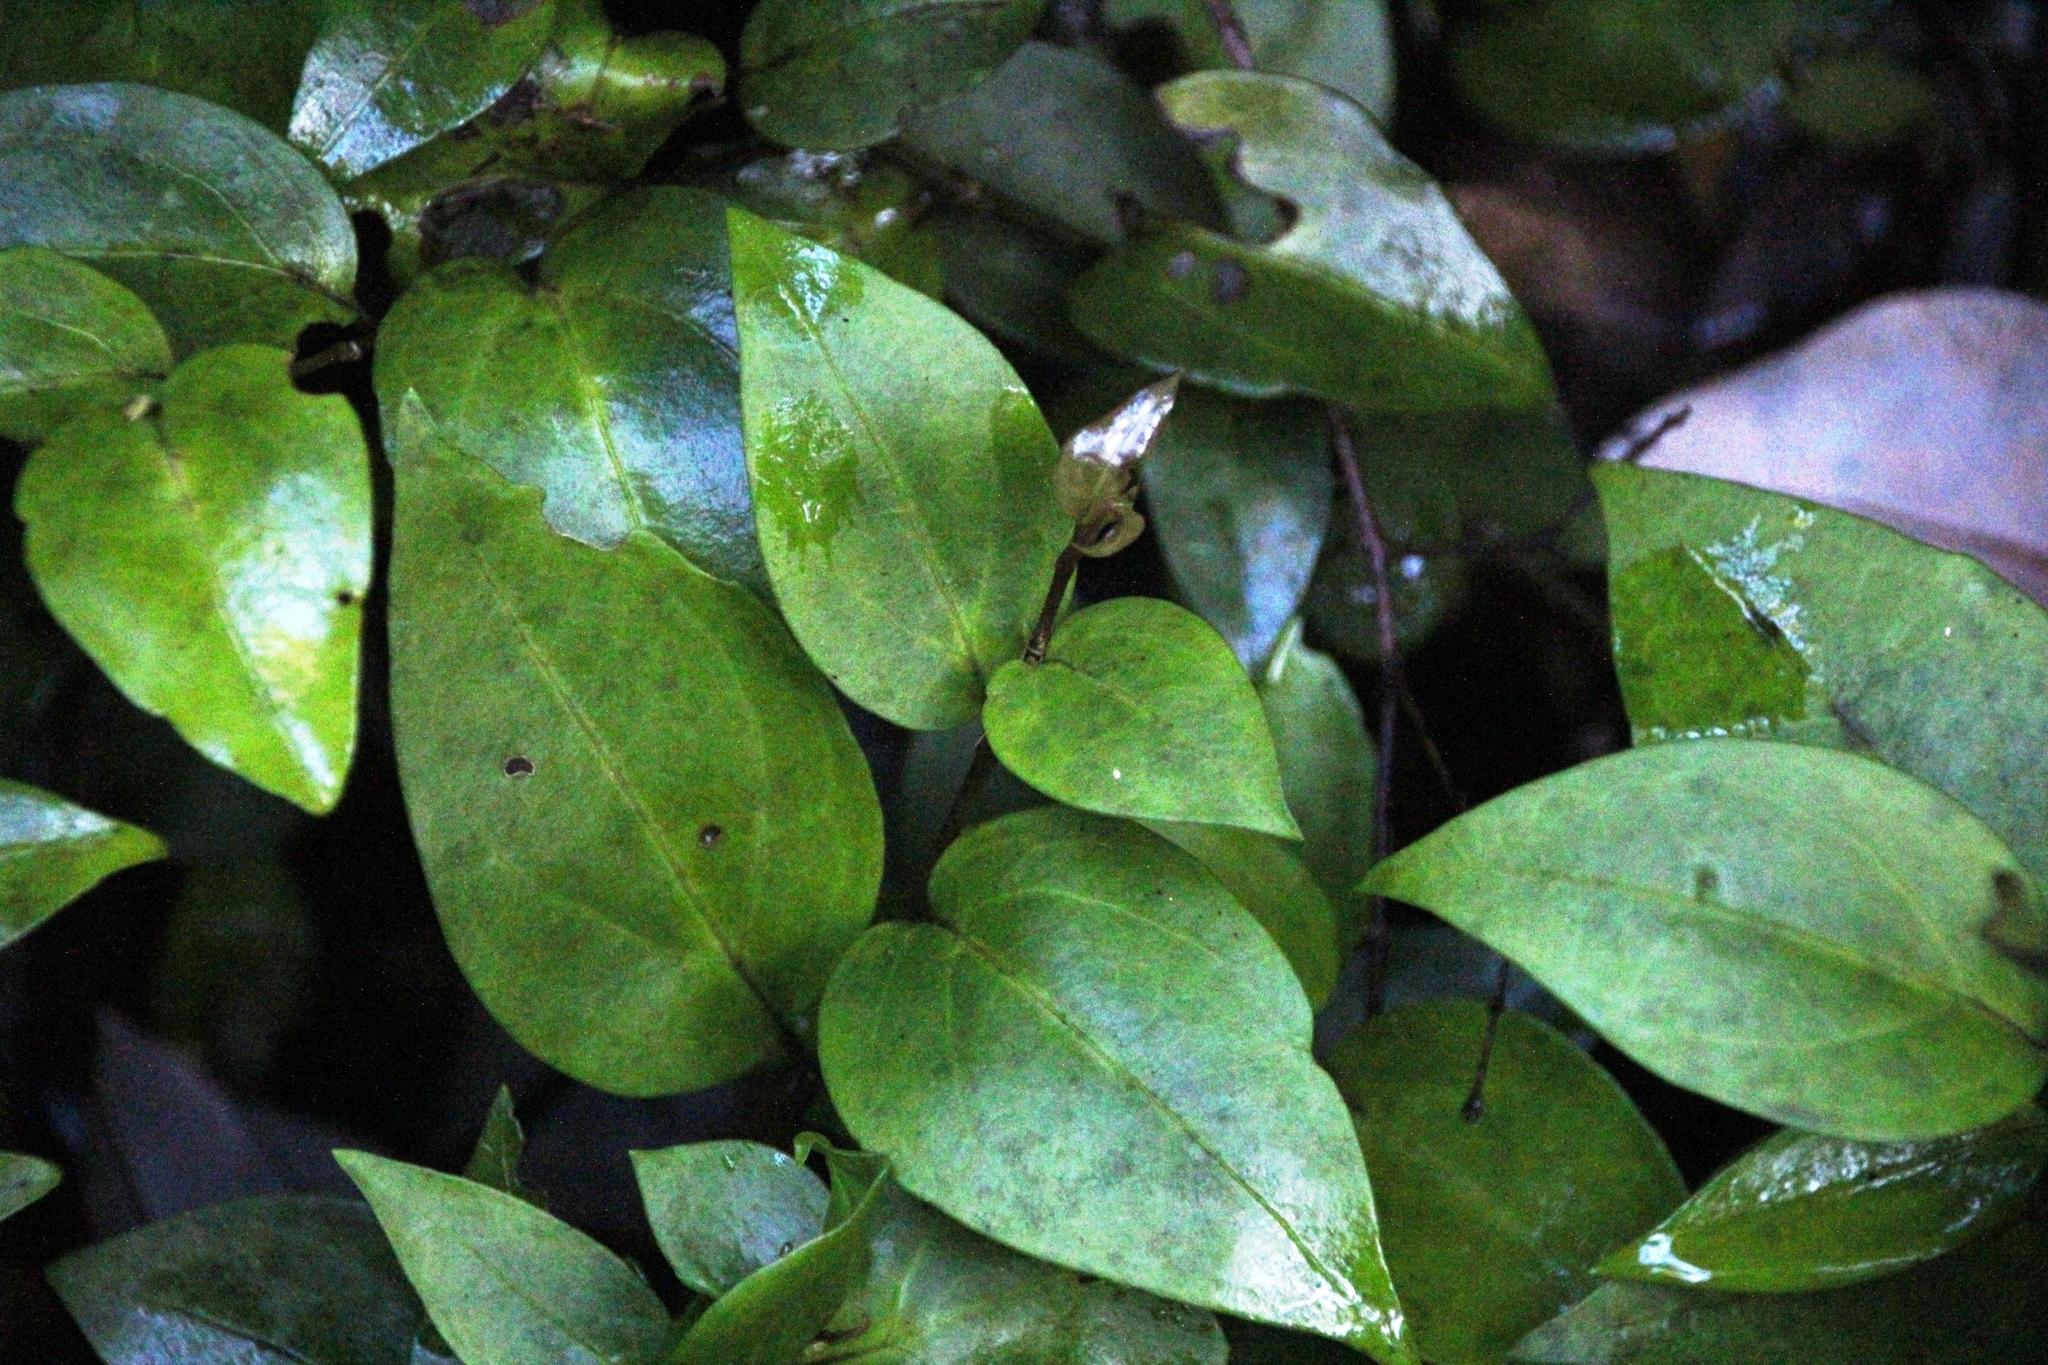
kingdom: Plantae
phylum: Tracheophyta
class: Magnoliopsida
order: Apiales
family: Griseliniaceae
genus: Griselinia
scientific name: Griselinia racemosa
